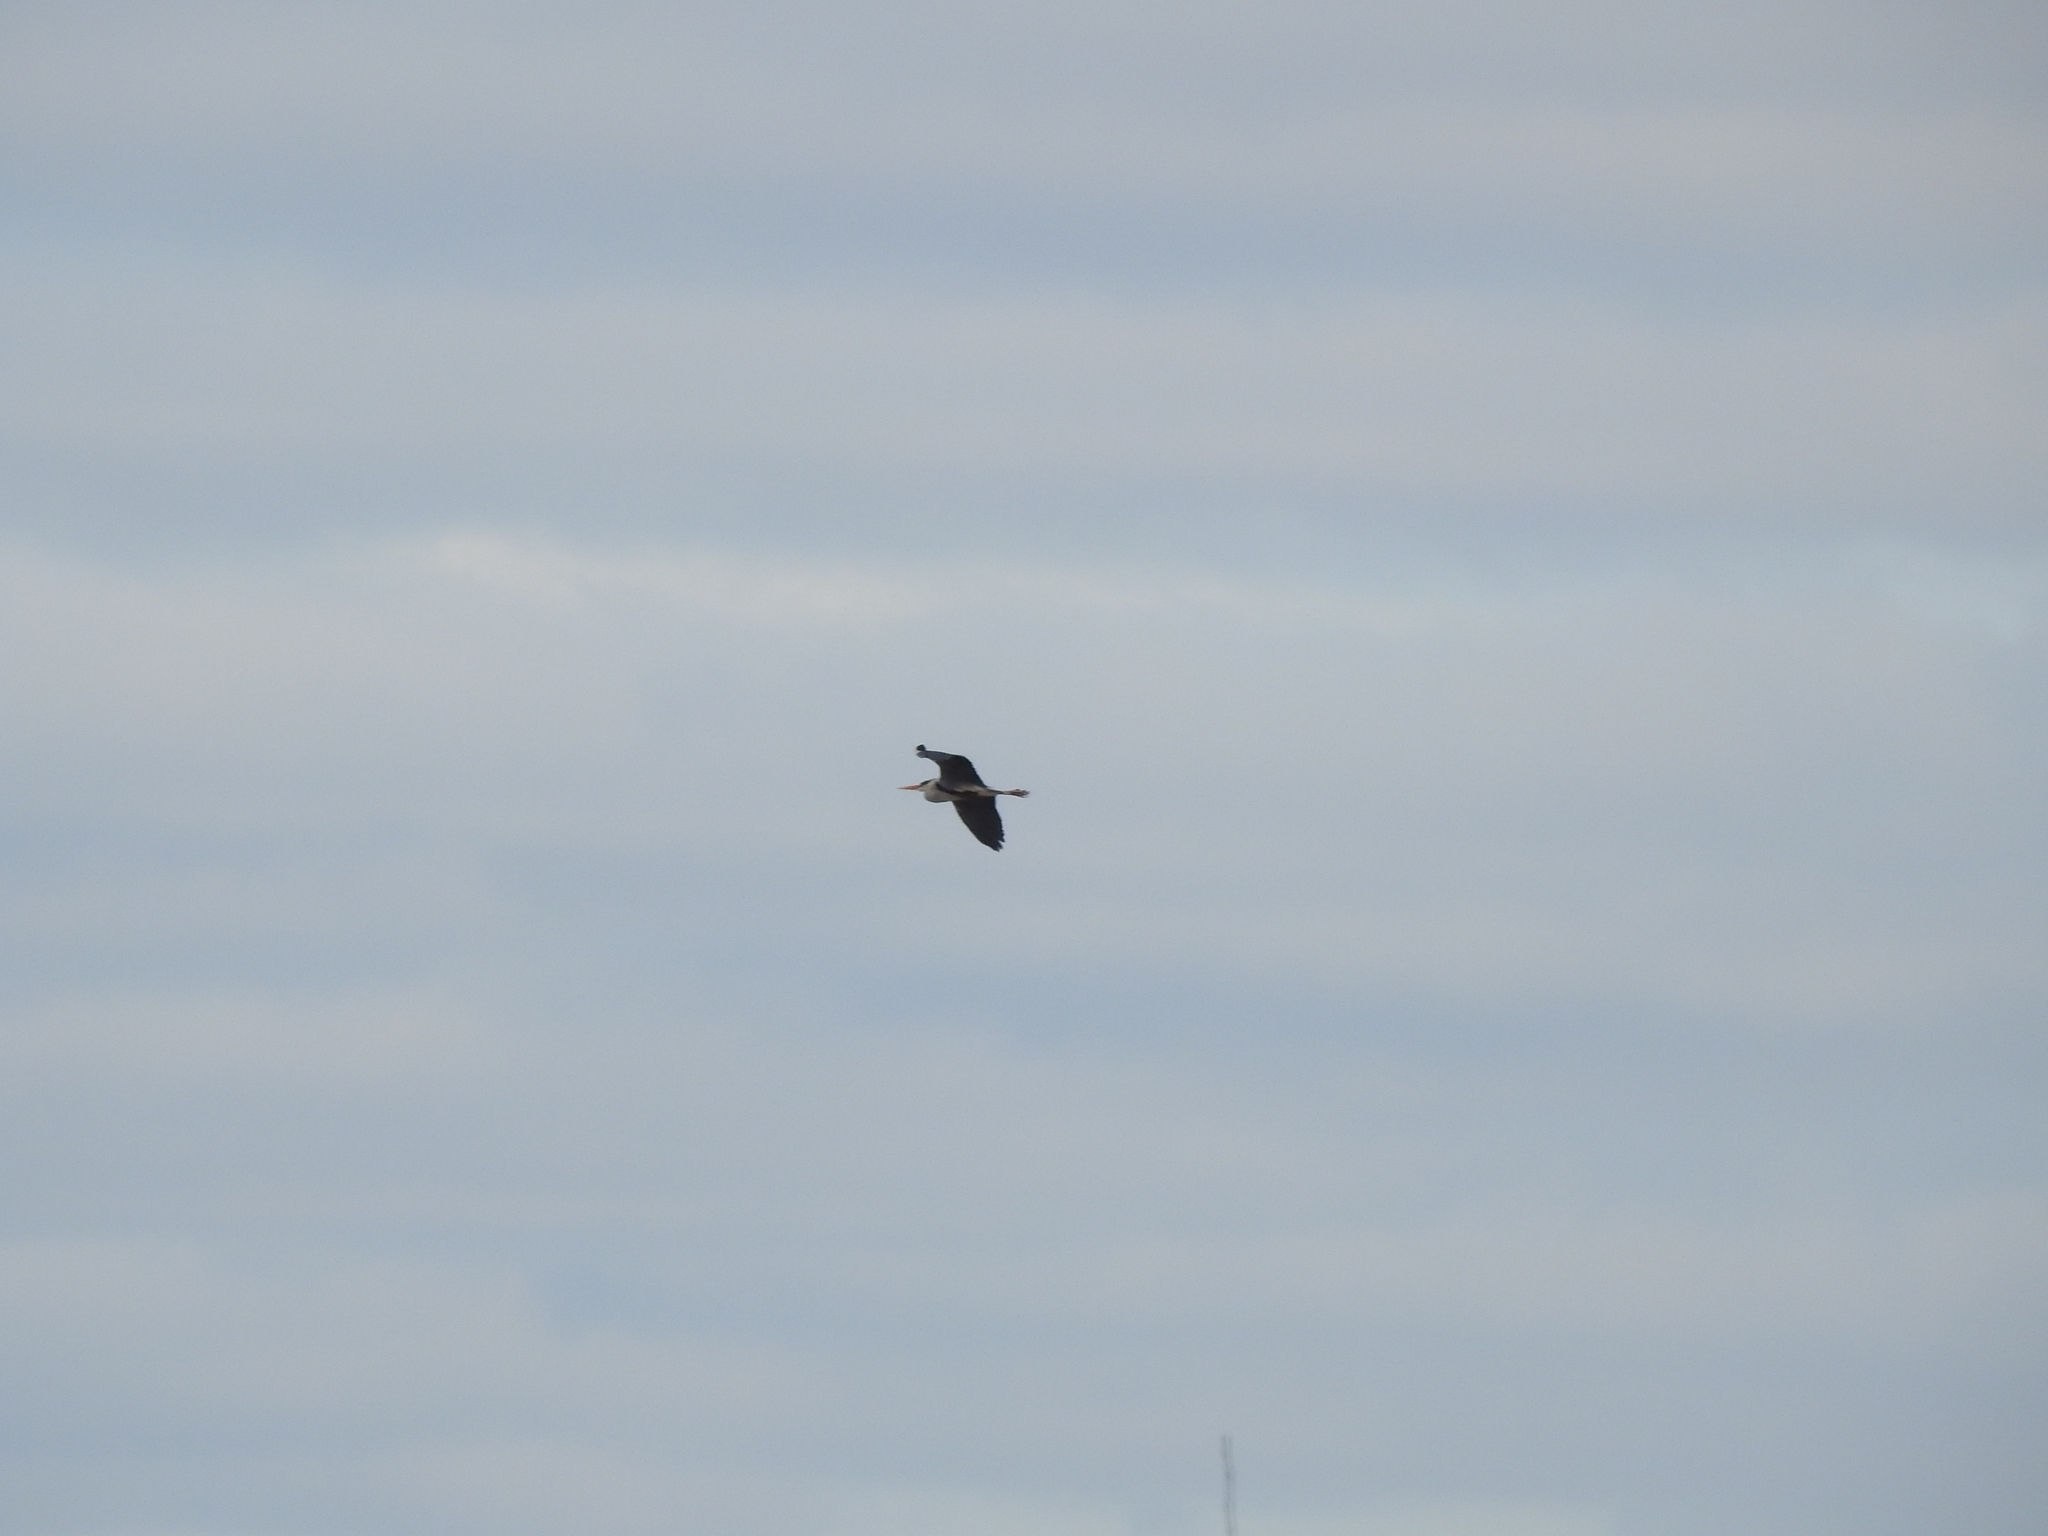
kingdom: Animalia
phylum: Chordata
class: Aves
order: Pelecaniformes
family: Ardeidae
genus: Ardea
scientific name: Ardea cinerea
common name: Grey heron
